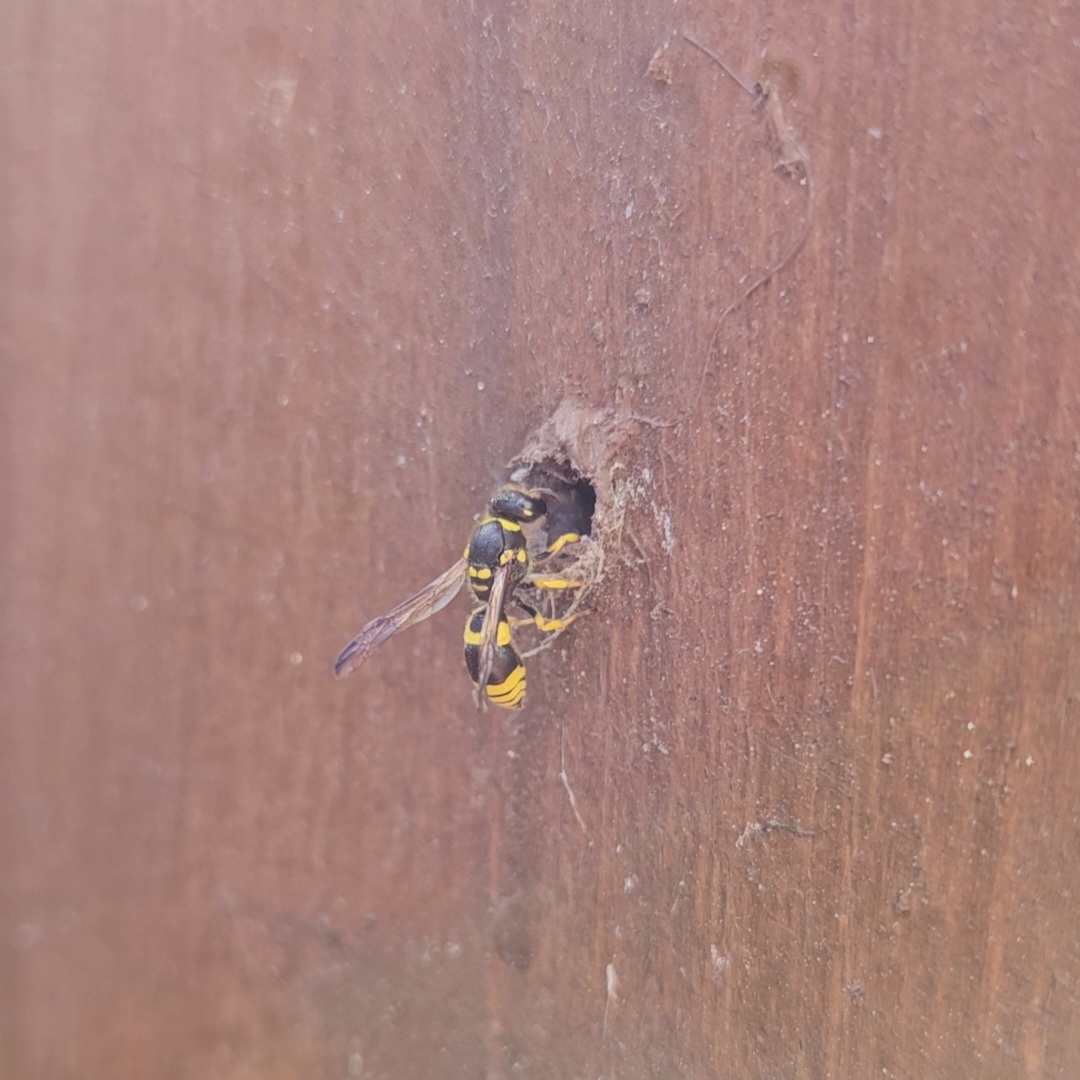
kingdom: Animalia
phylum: Arthropoda
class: Insecta
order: Hymenoptera
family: Vespidae
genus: Ancistrocerus
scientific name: Ancistrocerus gazella
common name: European tube wasp
